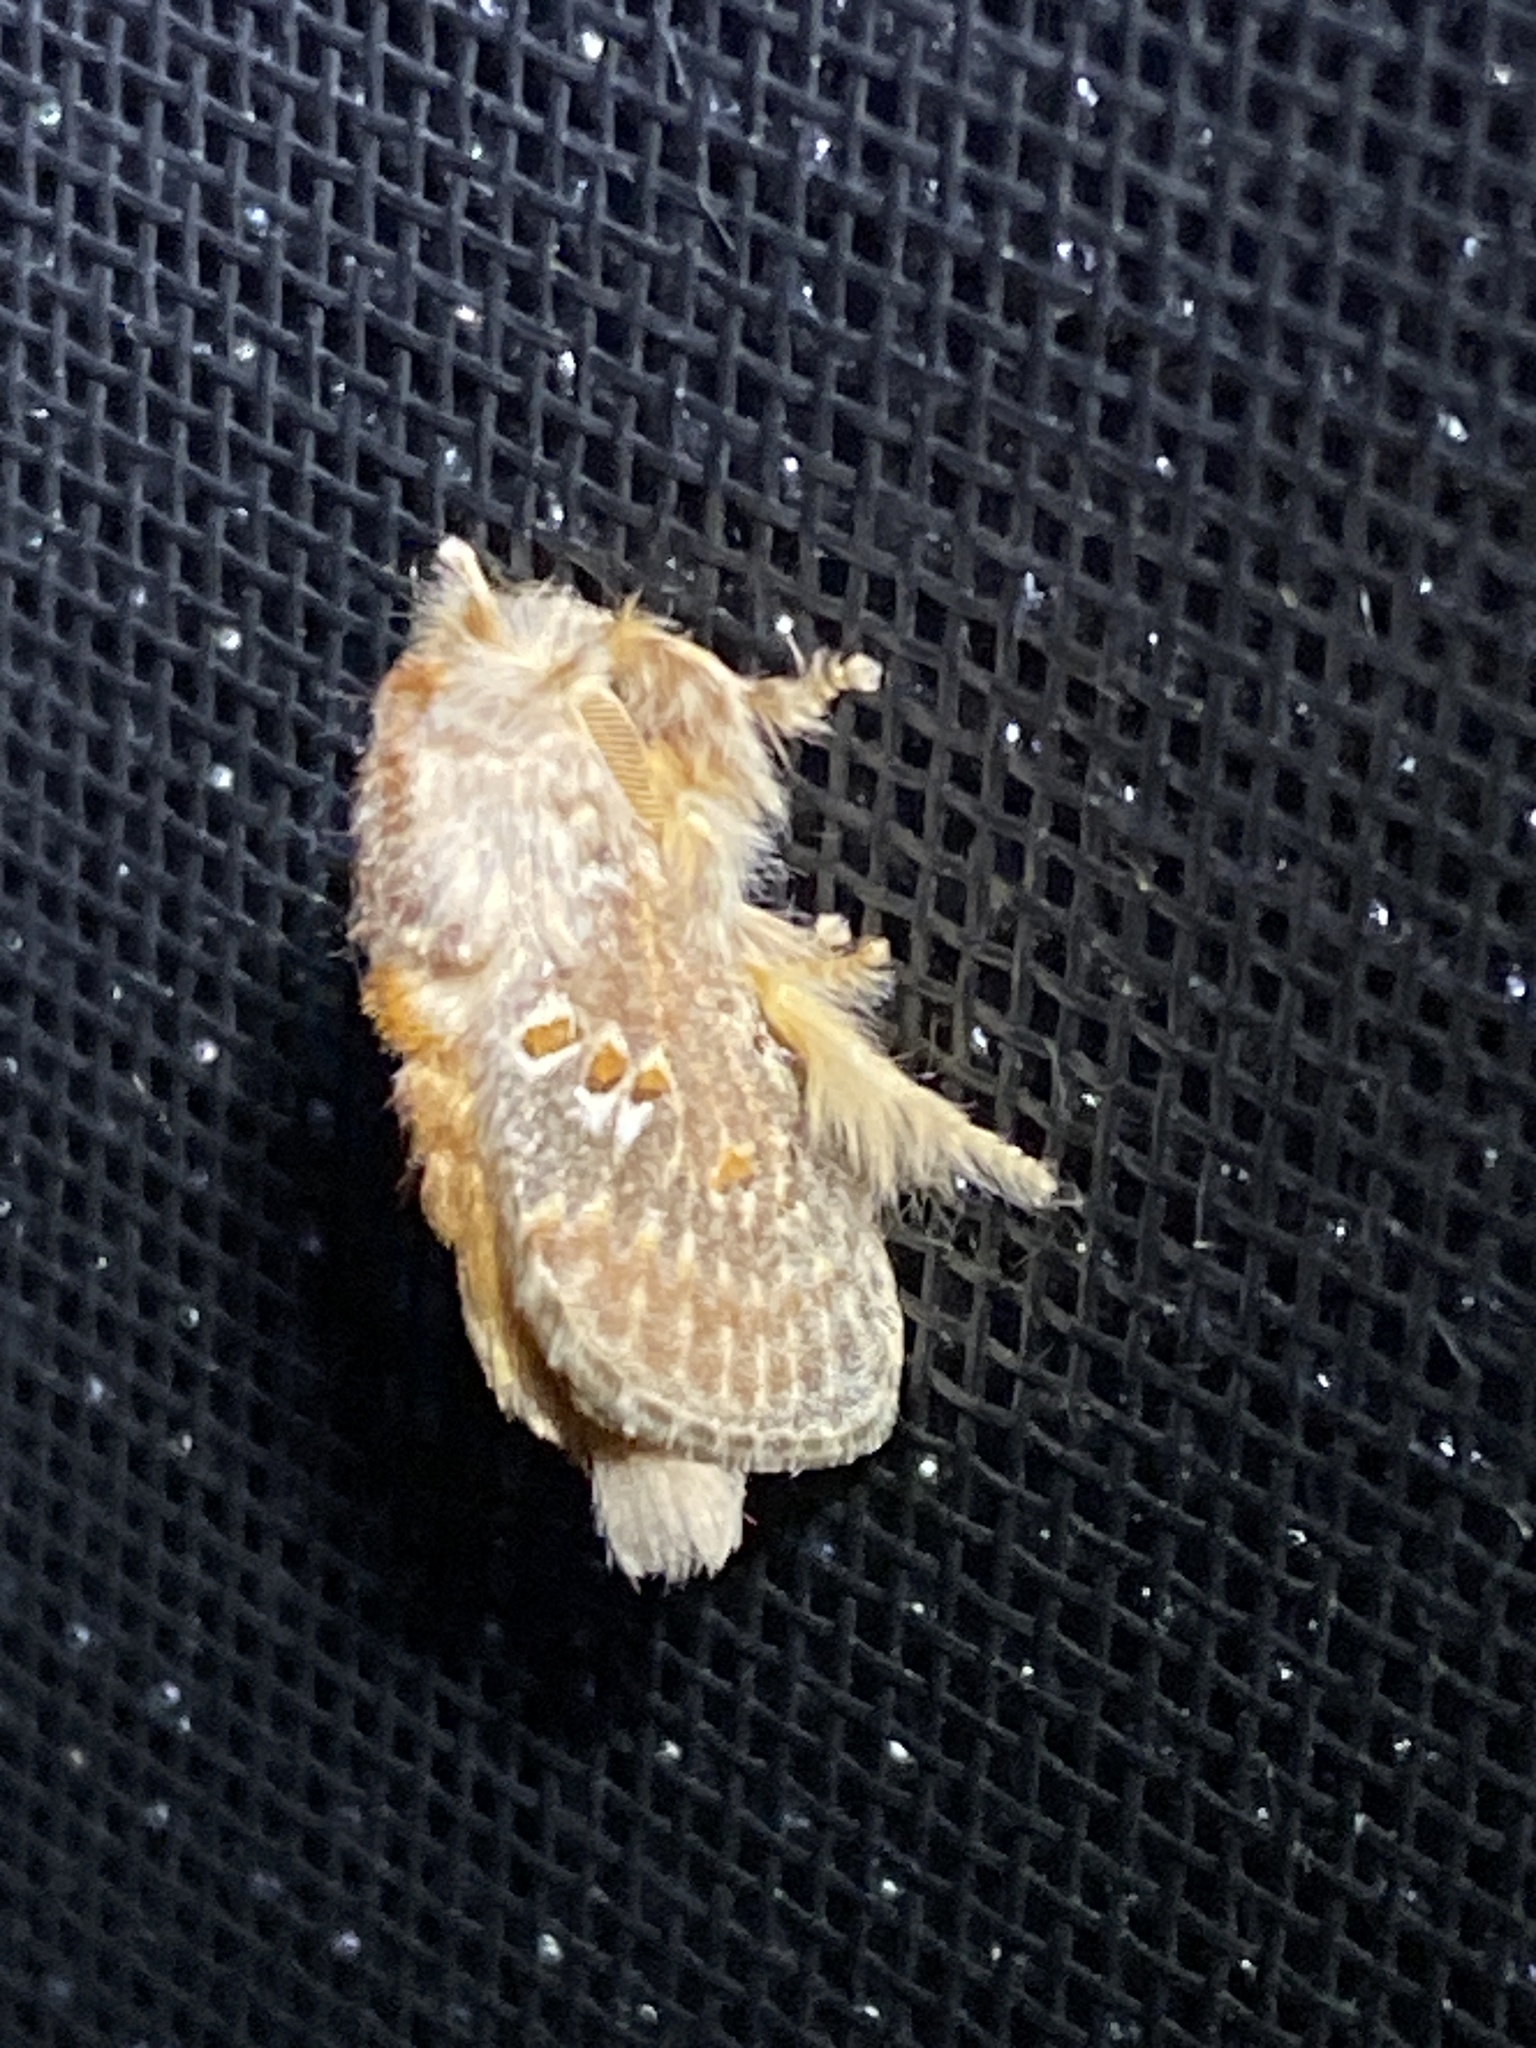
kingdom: Animalia
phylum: Arthropoda
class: Insecta
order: Lepidoptera
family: Limacodidae
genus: Pseudanapaea
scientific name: Pseudanapaea transvestita
